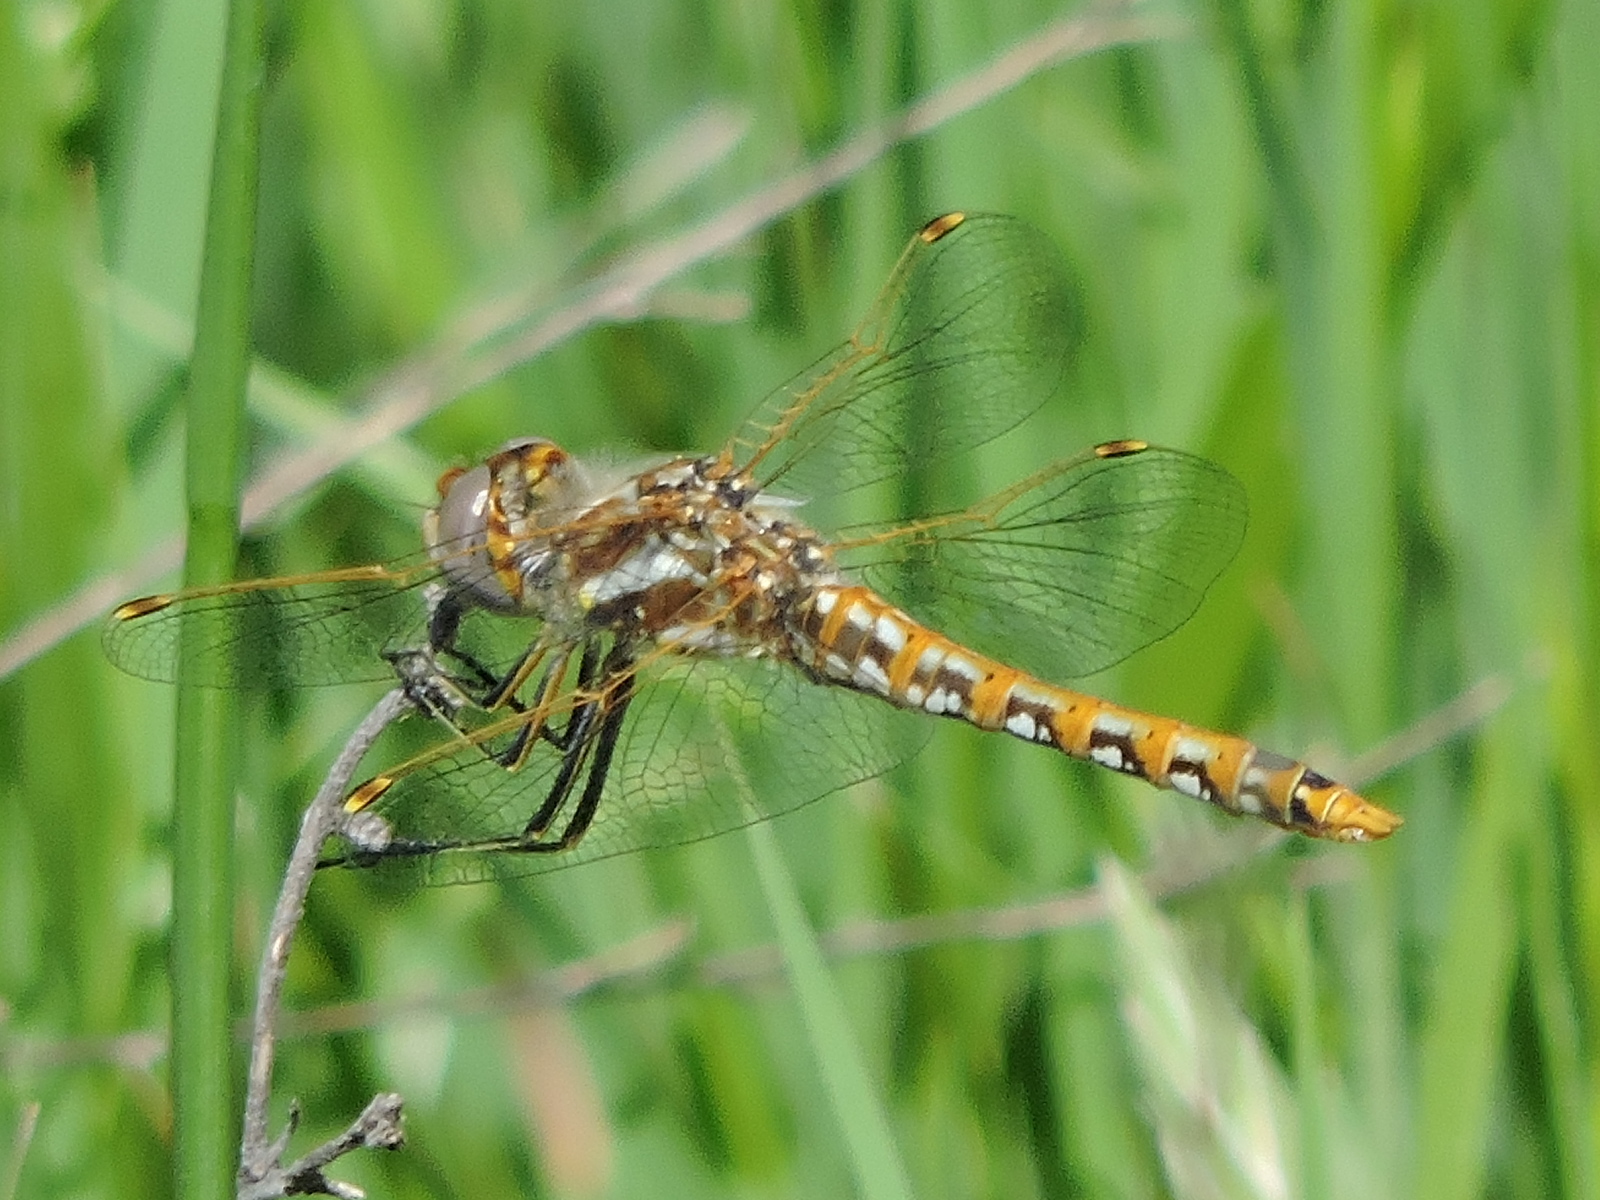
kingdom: Animalia
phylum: Arthropoda
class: Insecta
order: Odonata
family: Libellulidae
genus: Sympetrum
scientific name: Sympetrum corruptum
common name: Variegated meadowhawk
